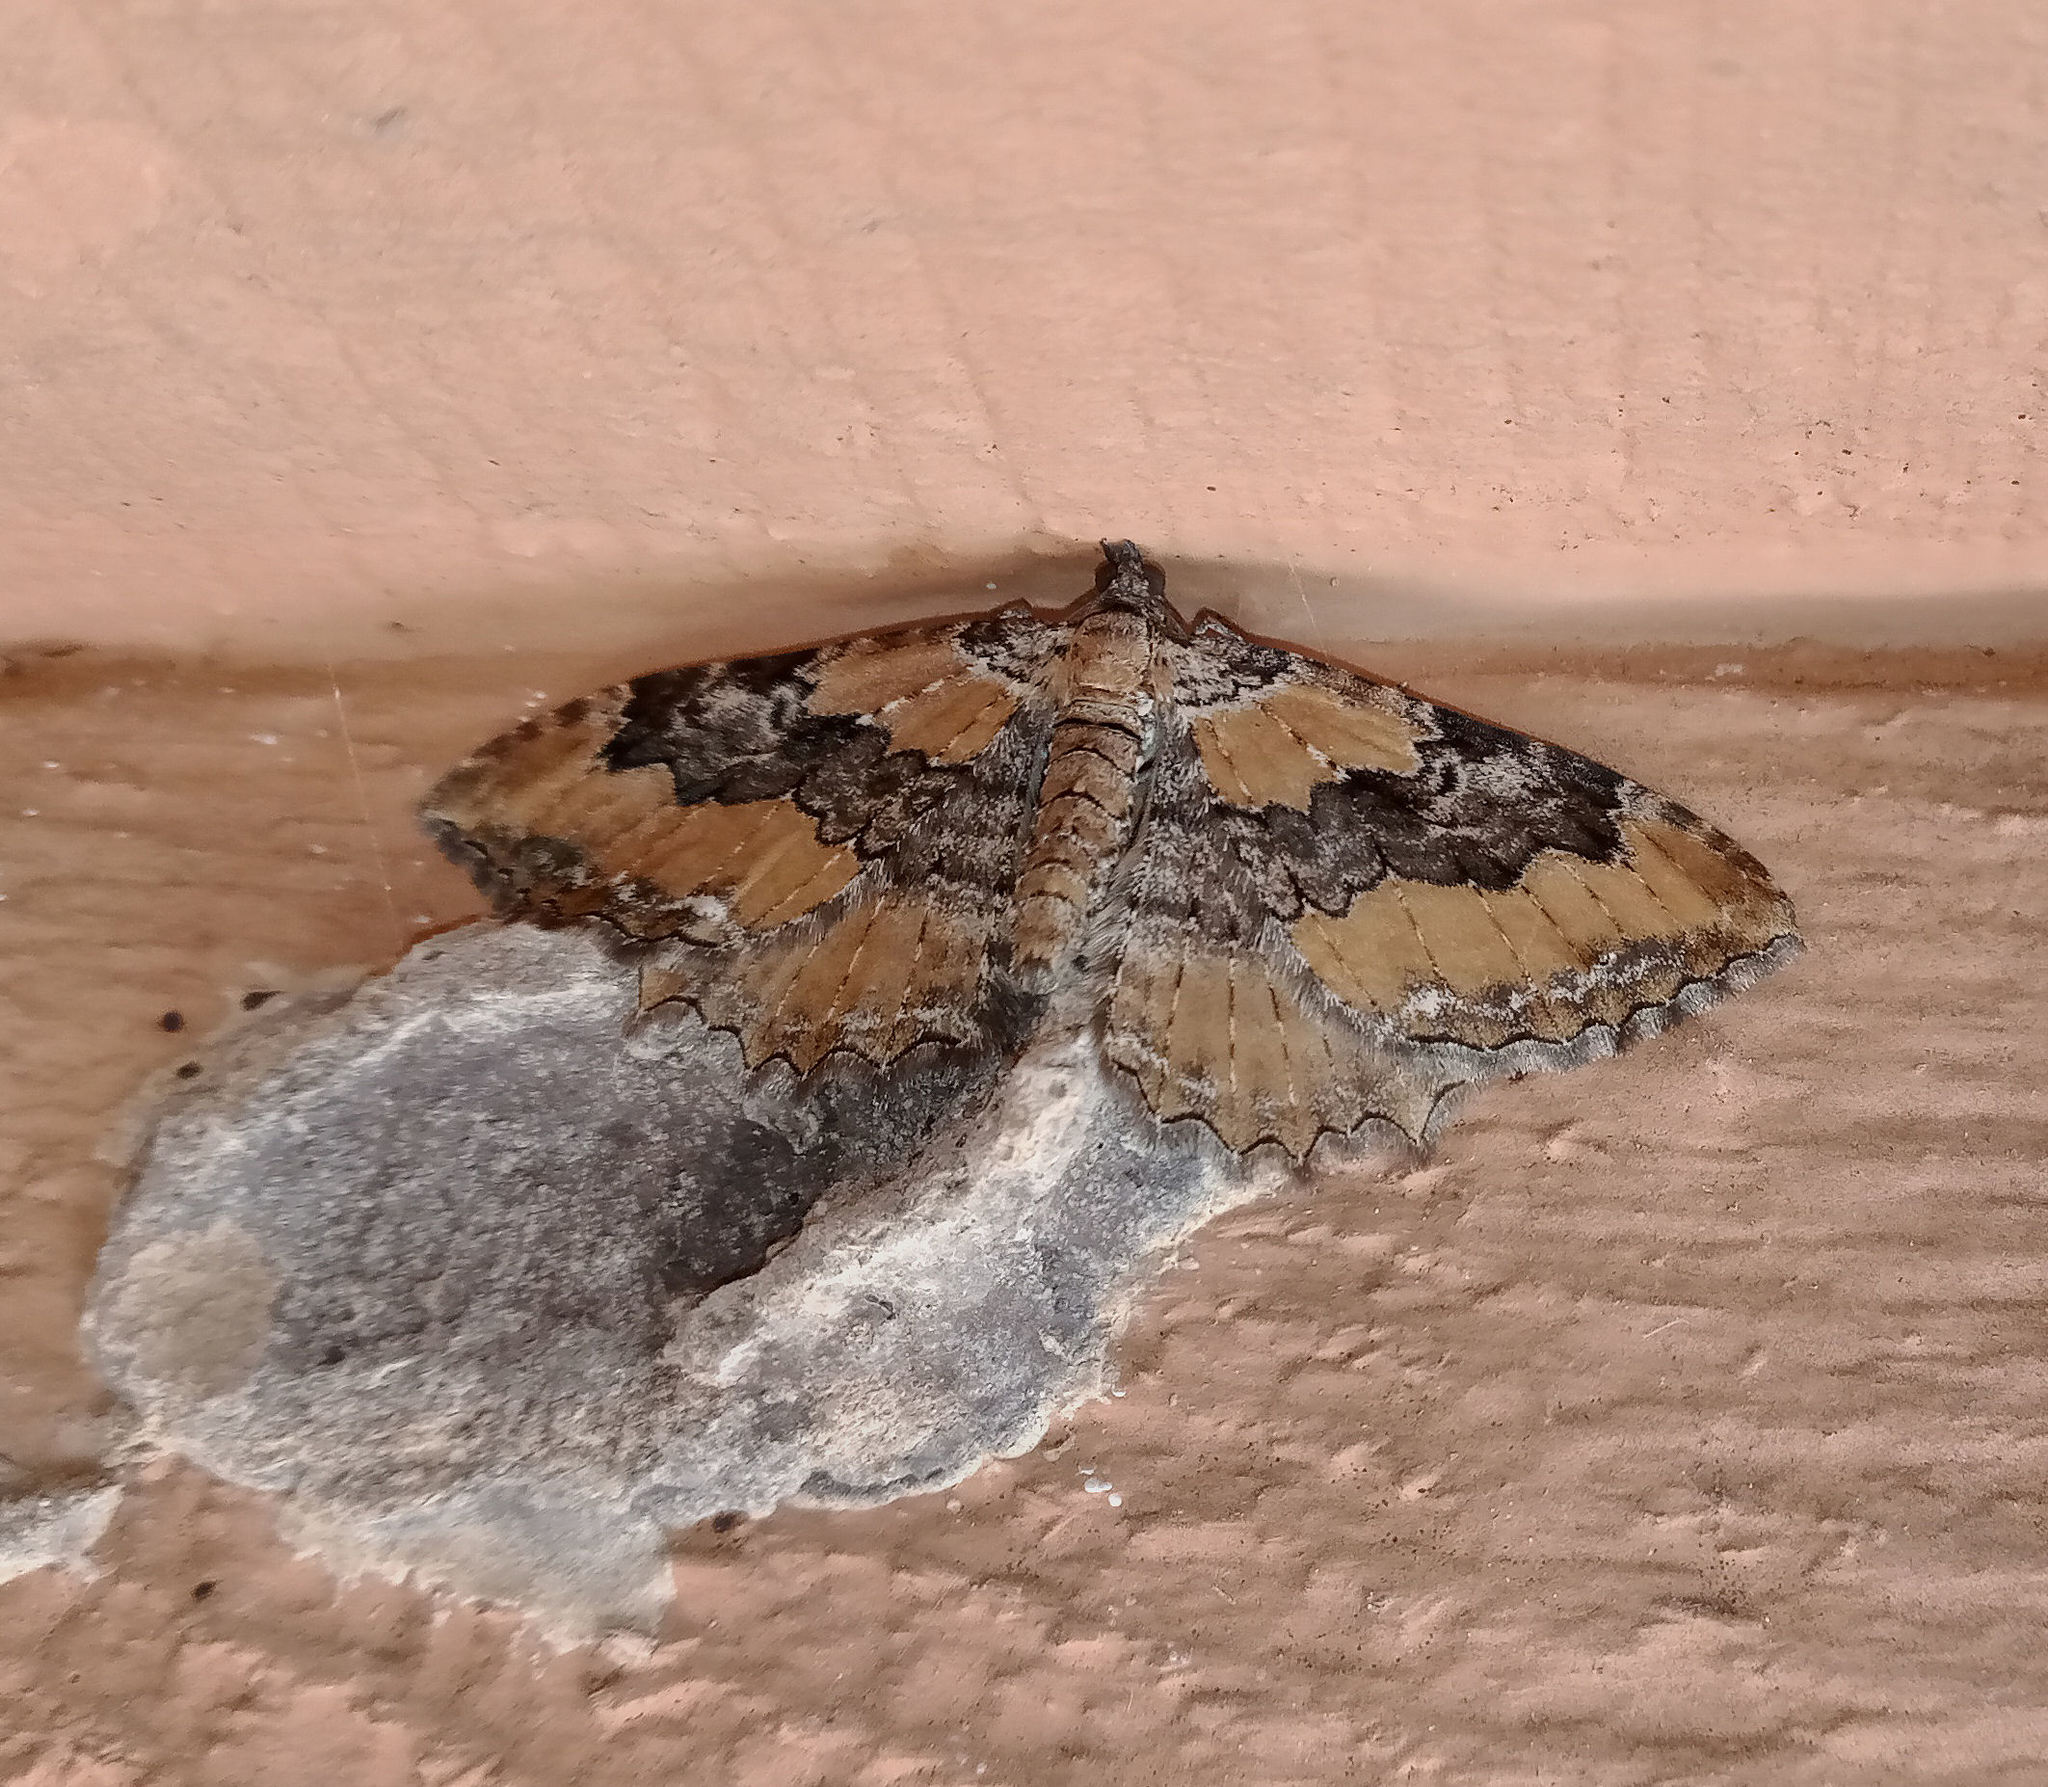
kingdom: Animalia
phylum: Arthropoda
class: Insecta
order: Lepidoptera
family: Geometridae
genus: Rheumaptera
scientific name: Rheumaptera
